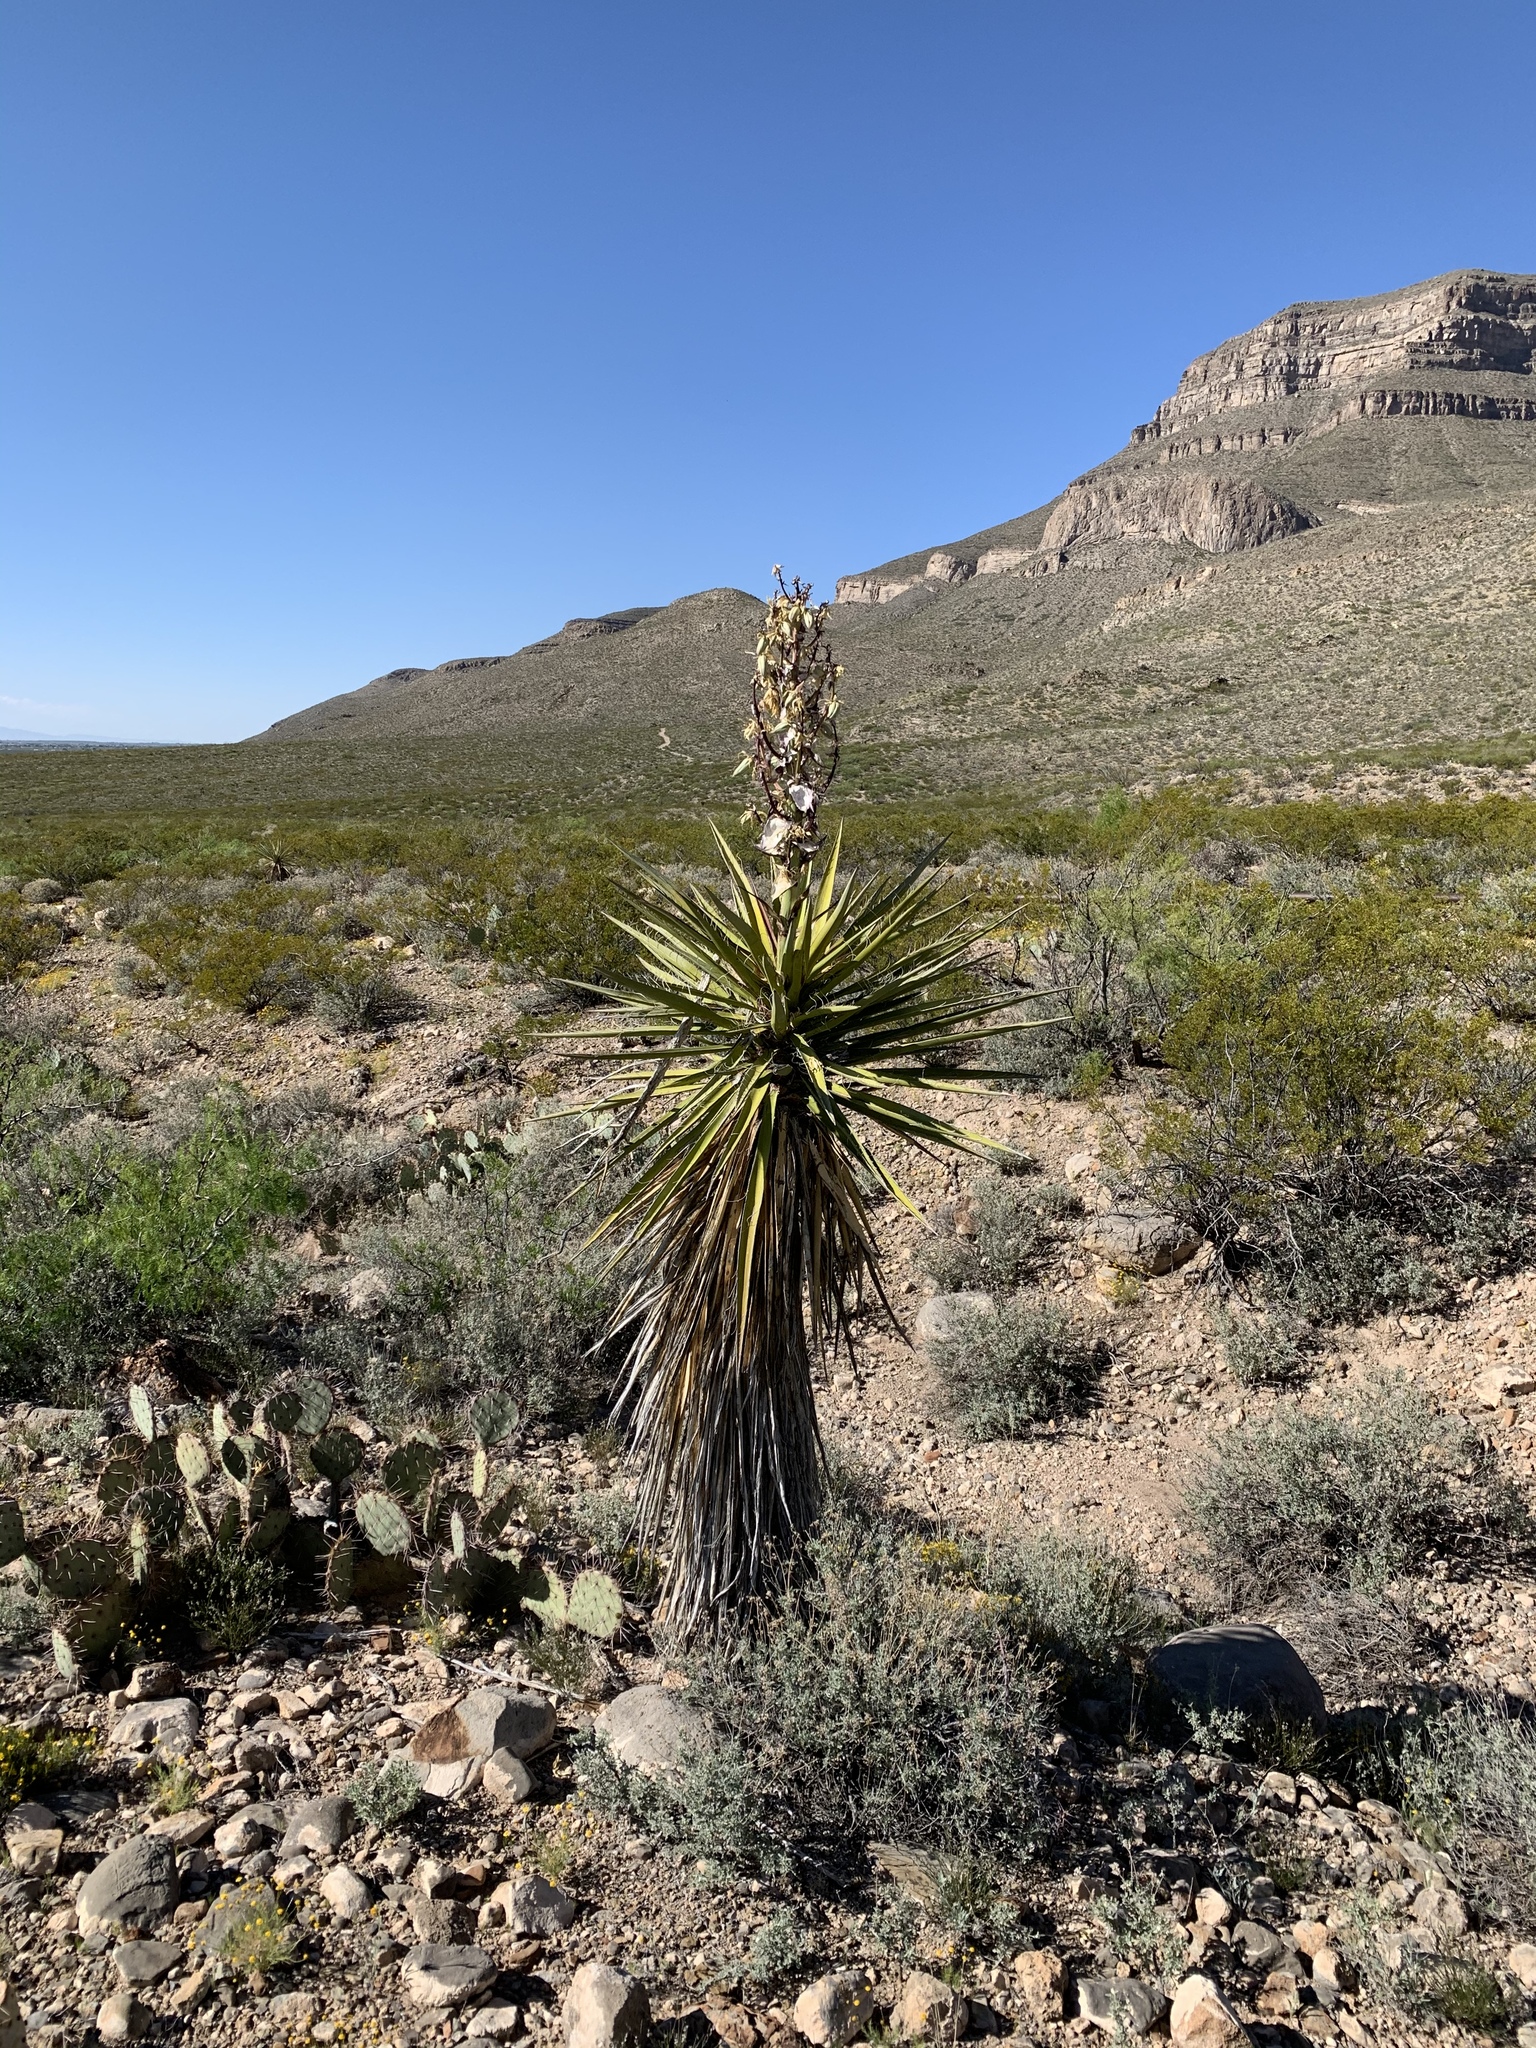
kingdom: Plantae
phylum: Tracheophyta
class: Liliopsida
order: Asparagales
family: Asparagaceae
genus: Yucca
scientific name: Yucca treculiana
